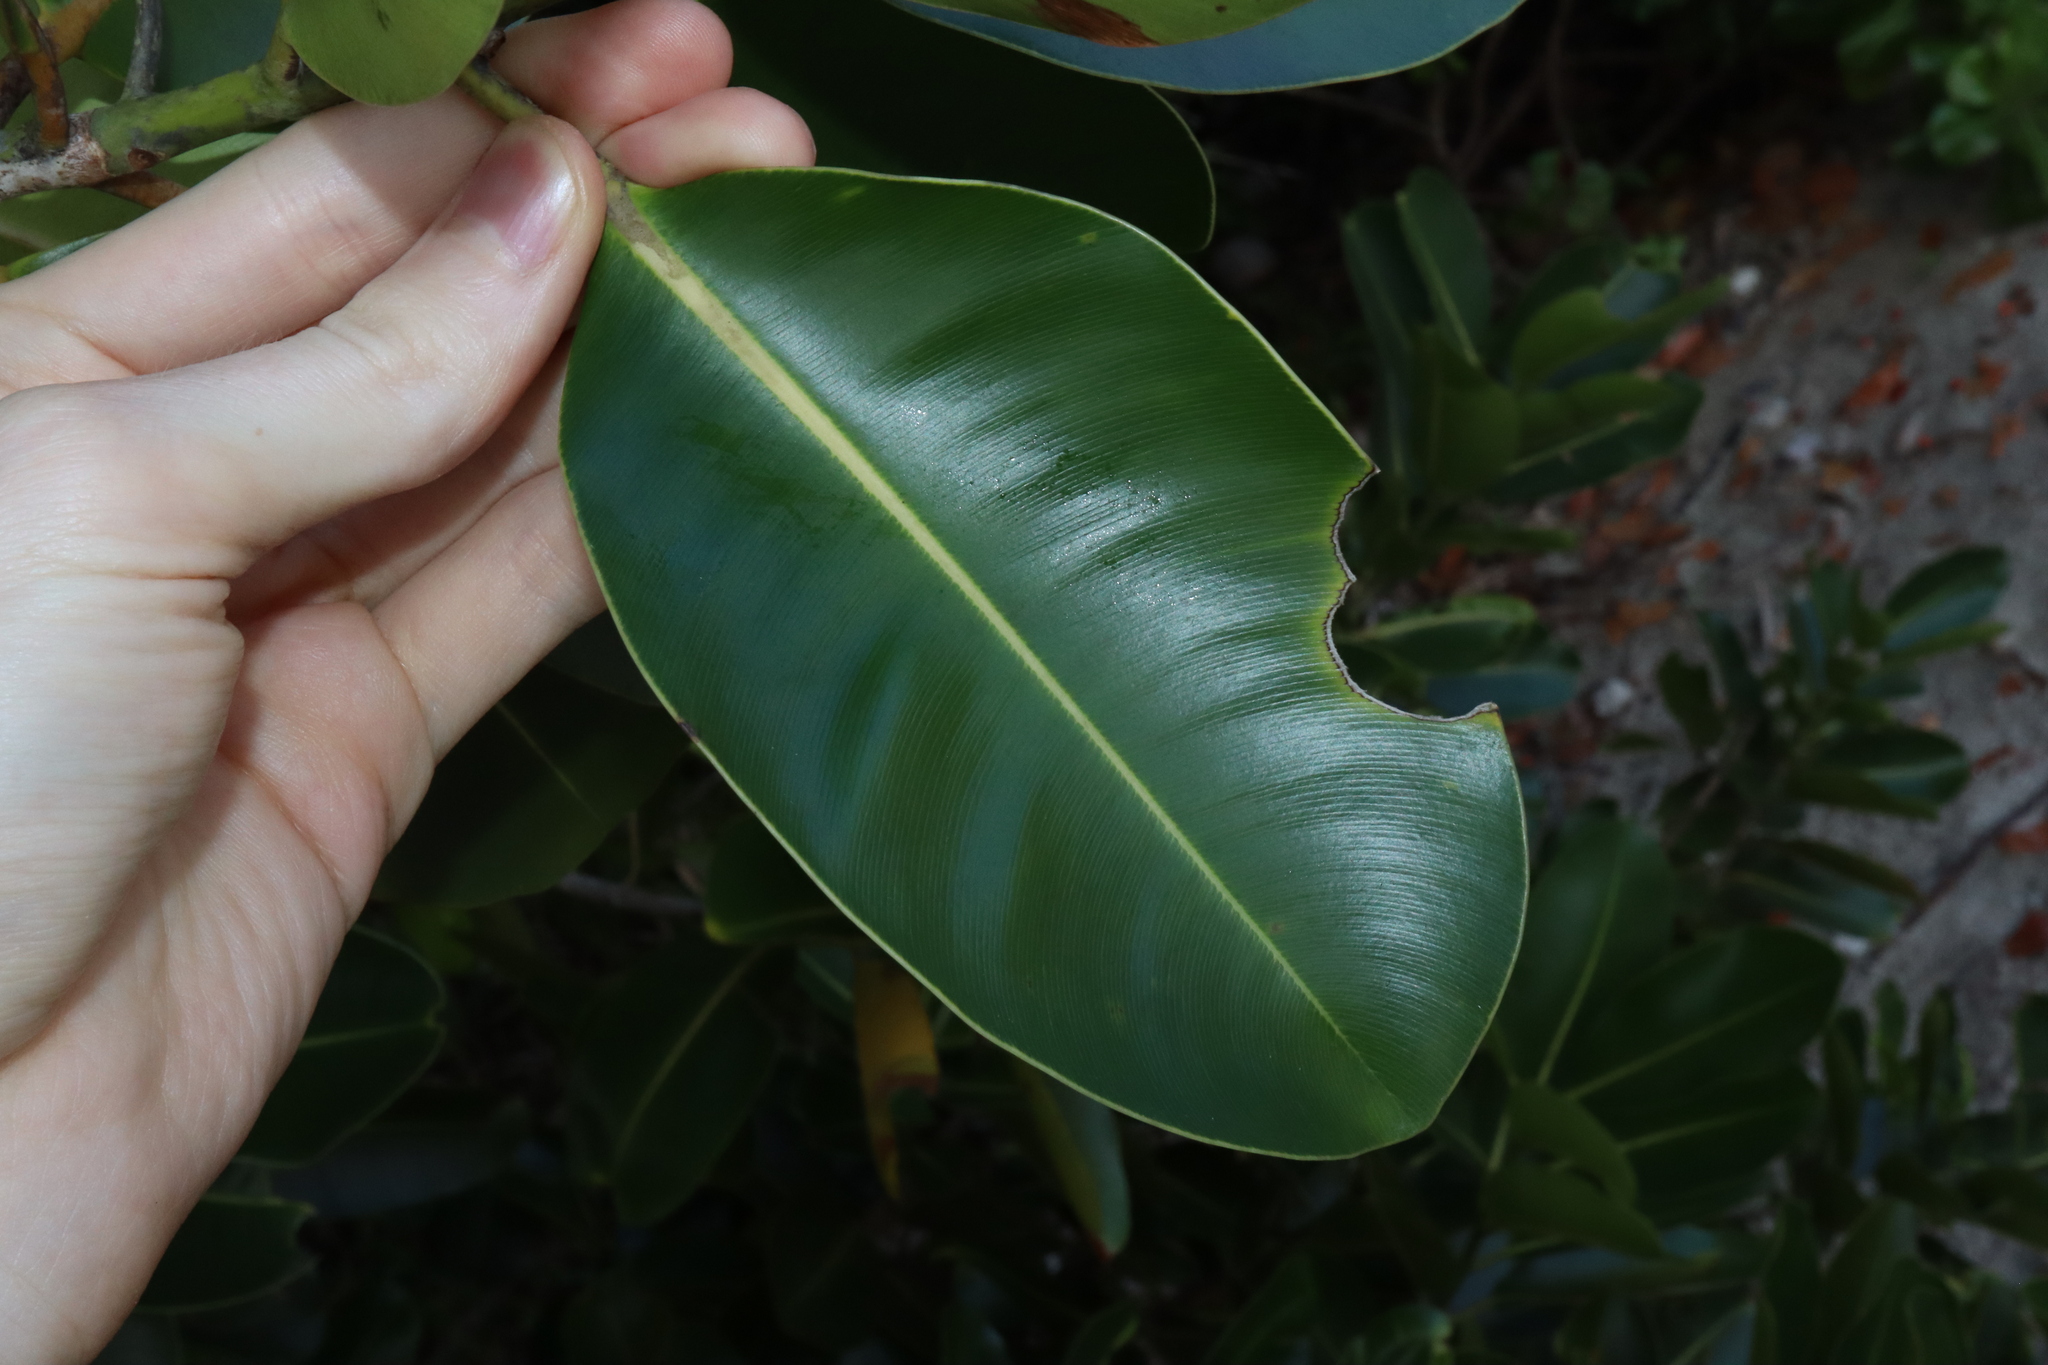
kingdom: Plantae
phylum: Tracheophyta
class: Magnoliopsida
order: Malpighiales
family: Calophyllaceae
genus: Calophyllum
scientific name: Calophyllum inophyllum
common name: Alexandrian laurel
